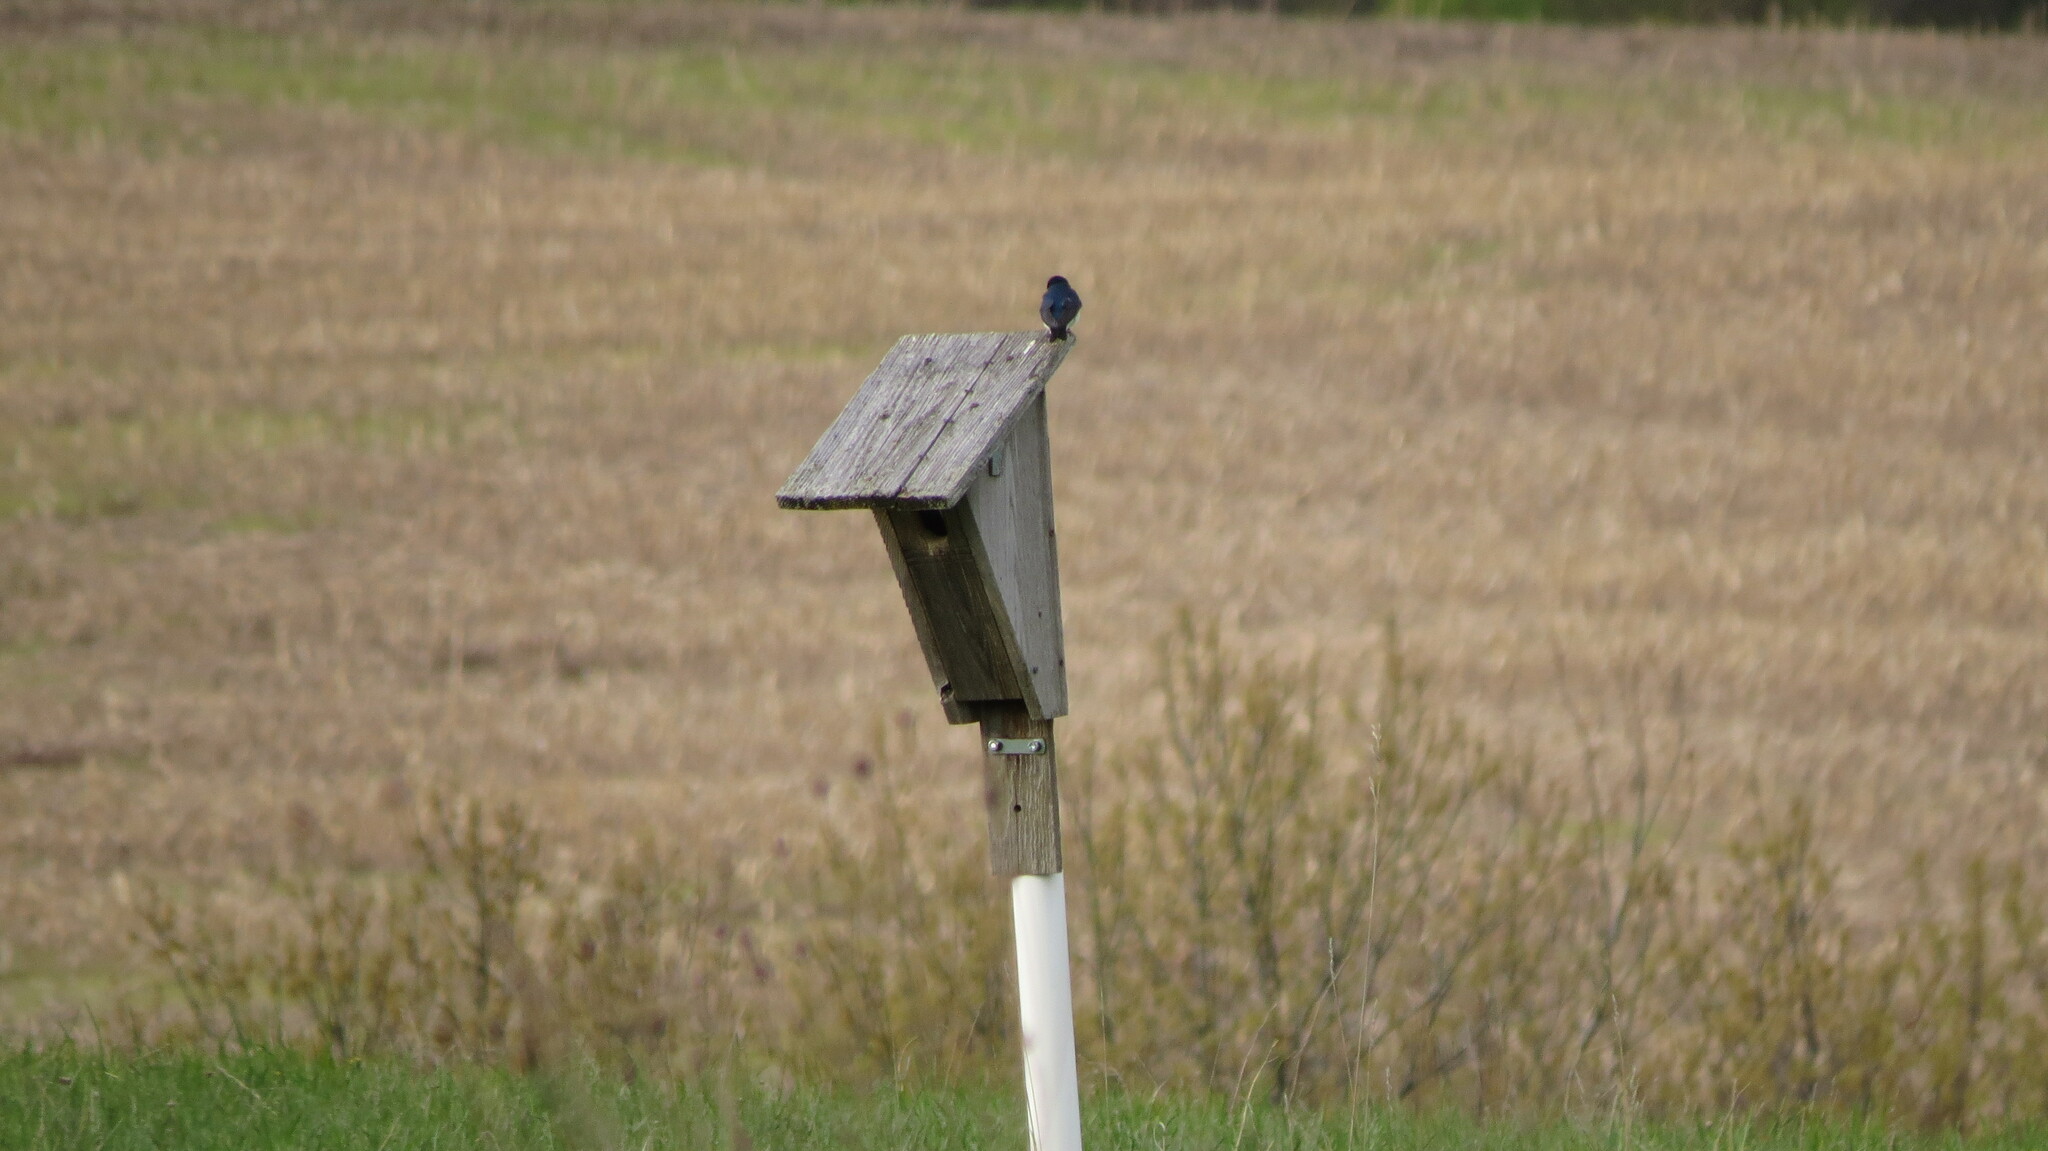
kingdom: Animalia
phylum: Chordata
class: Aves
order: Passeriformes
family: Hirundinidae
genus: Tachycineta
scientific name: Tachycineta bicolor
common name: Tree swallow
